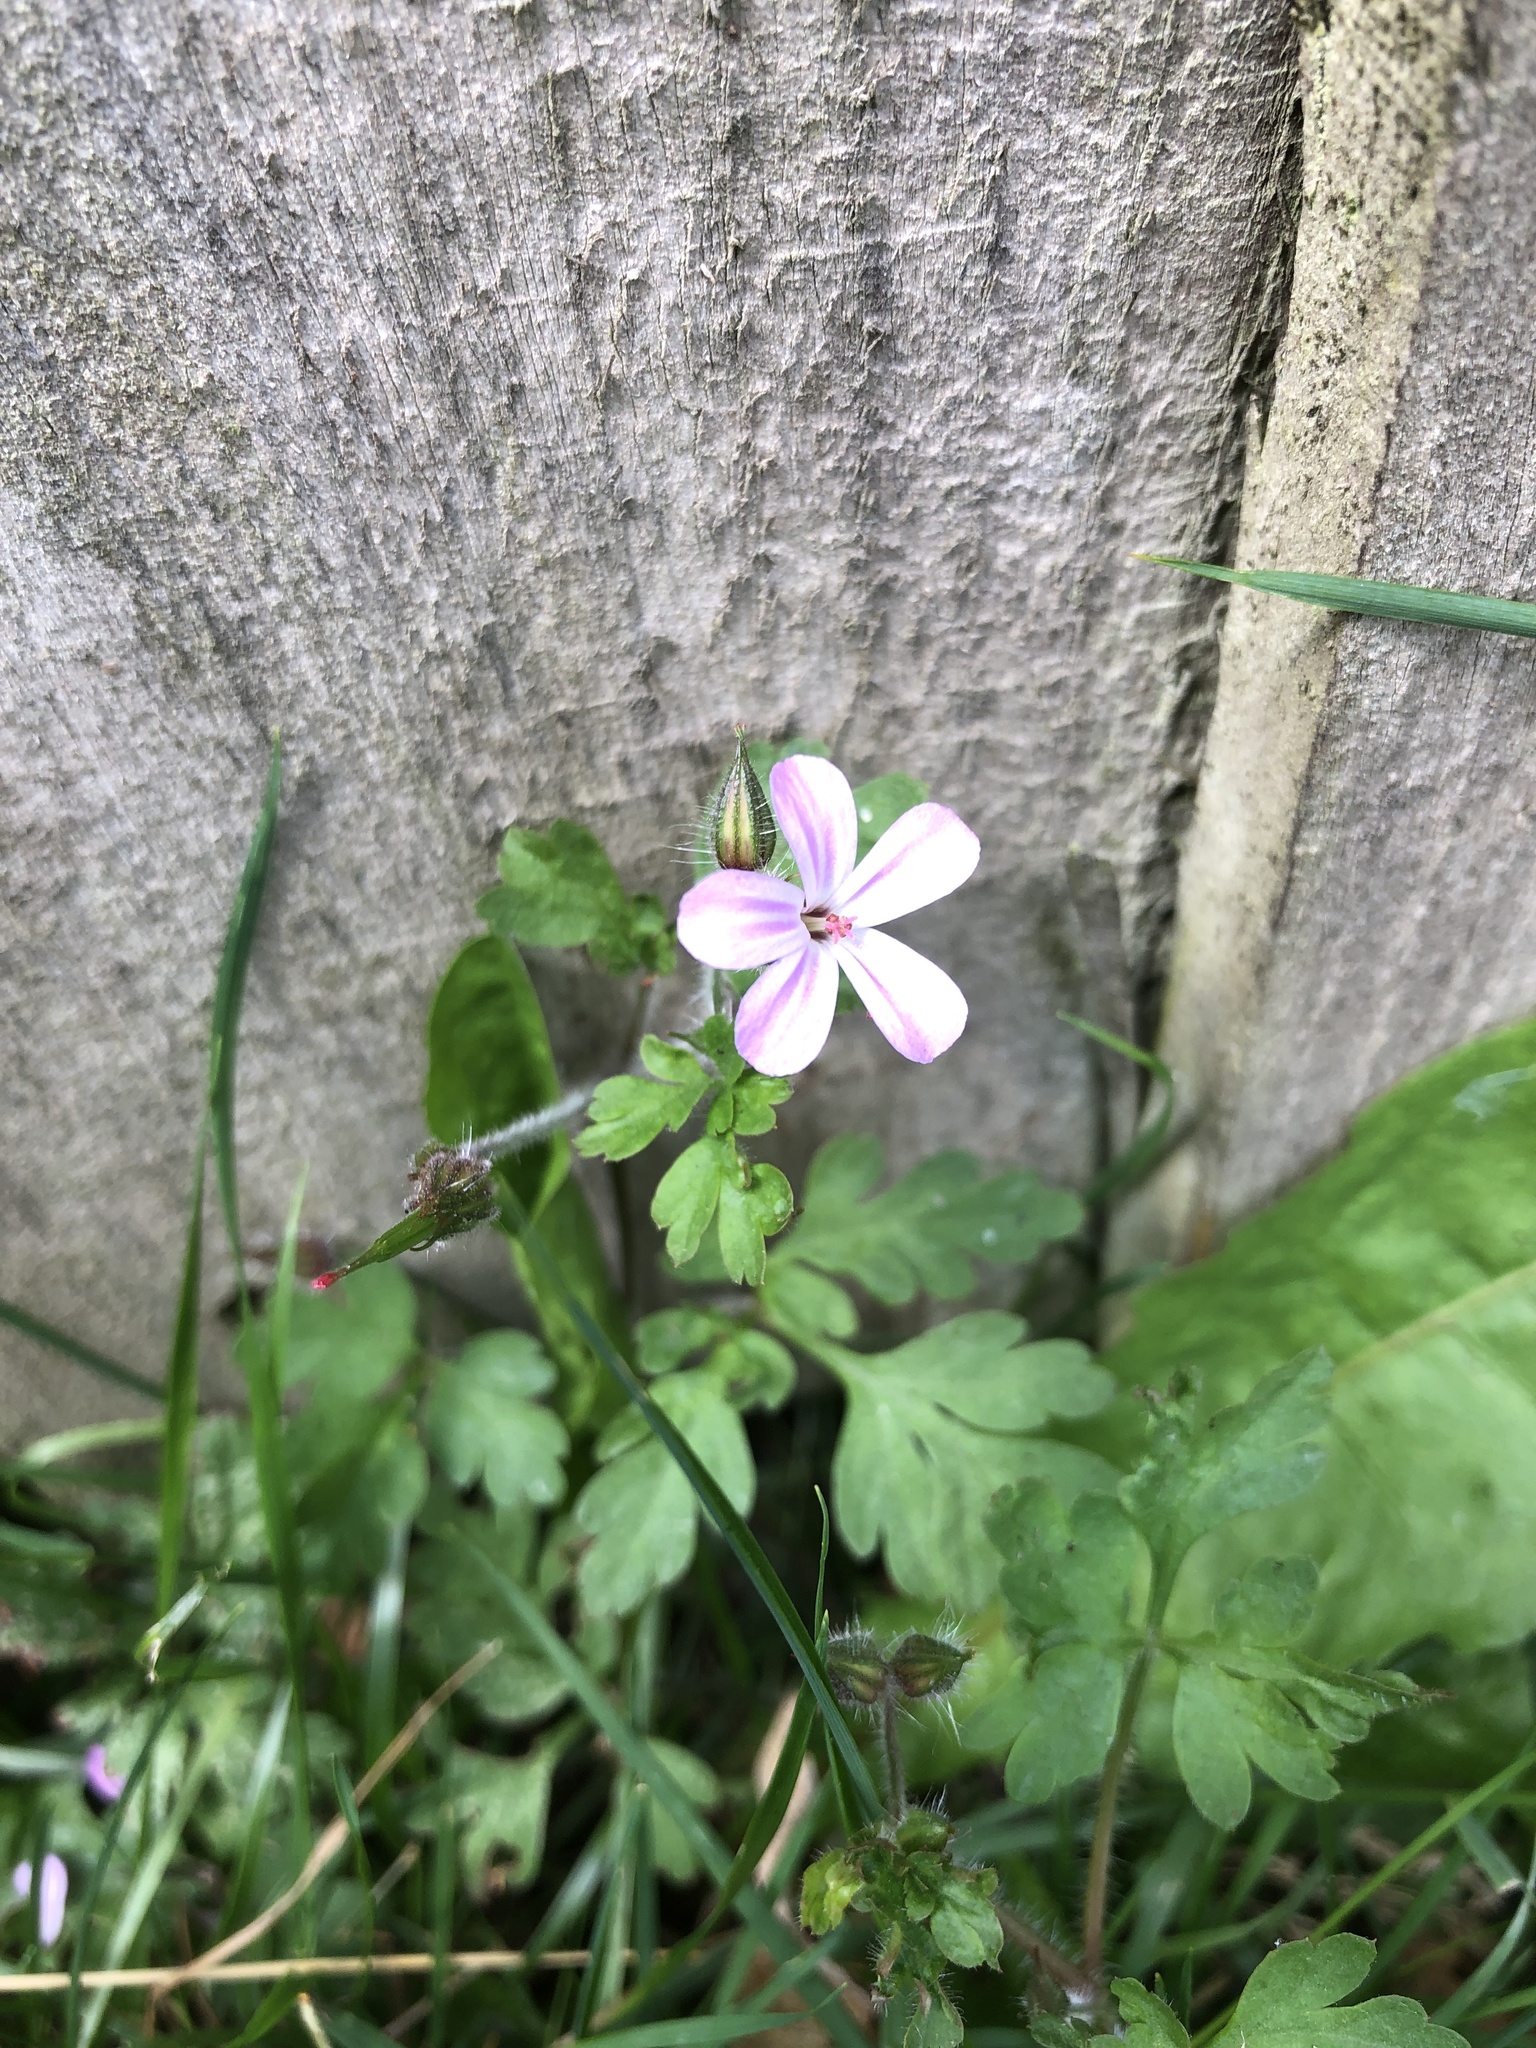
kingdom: Plantae
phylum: Tracheophyta
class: Magnoliopsida
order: Geraniales
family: Geraniaceae
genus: Geranium
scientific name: Geranium robertianum
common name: Herb-robert
